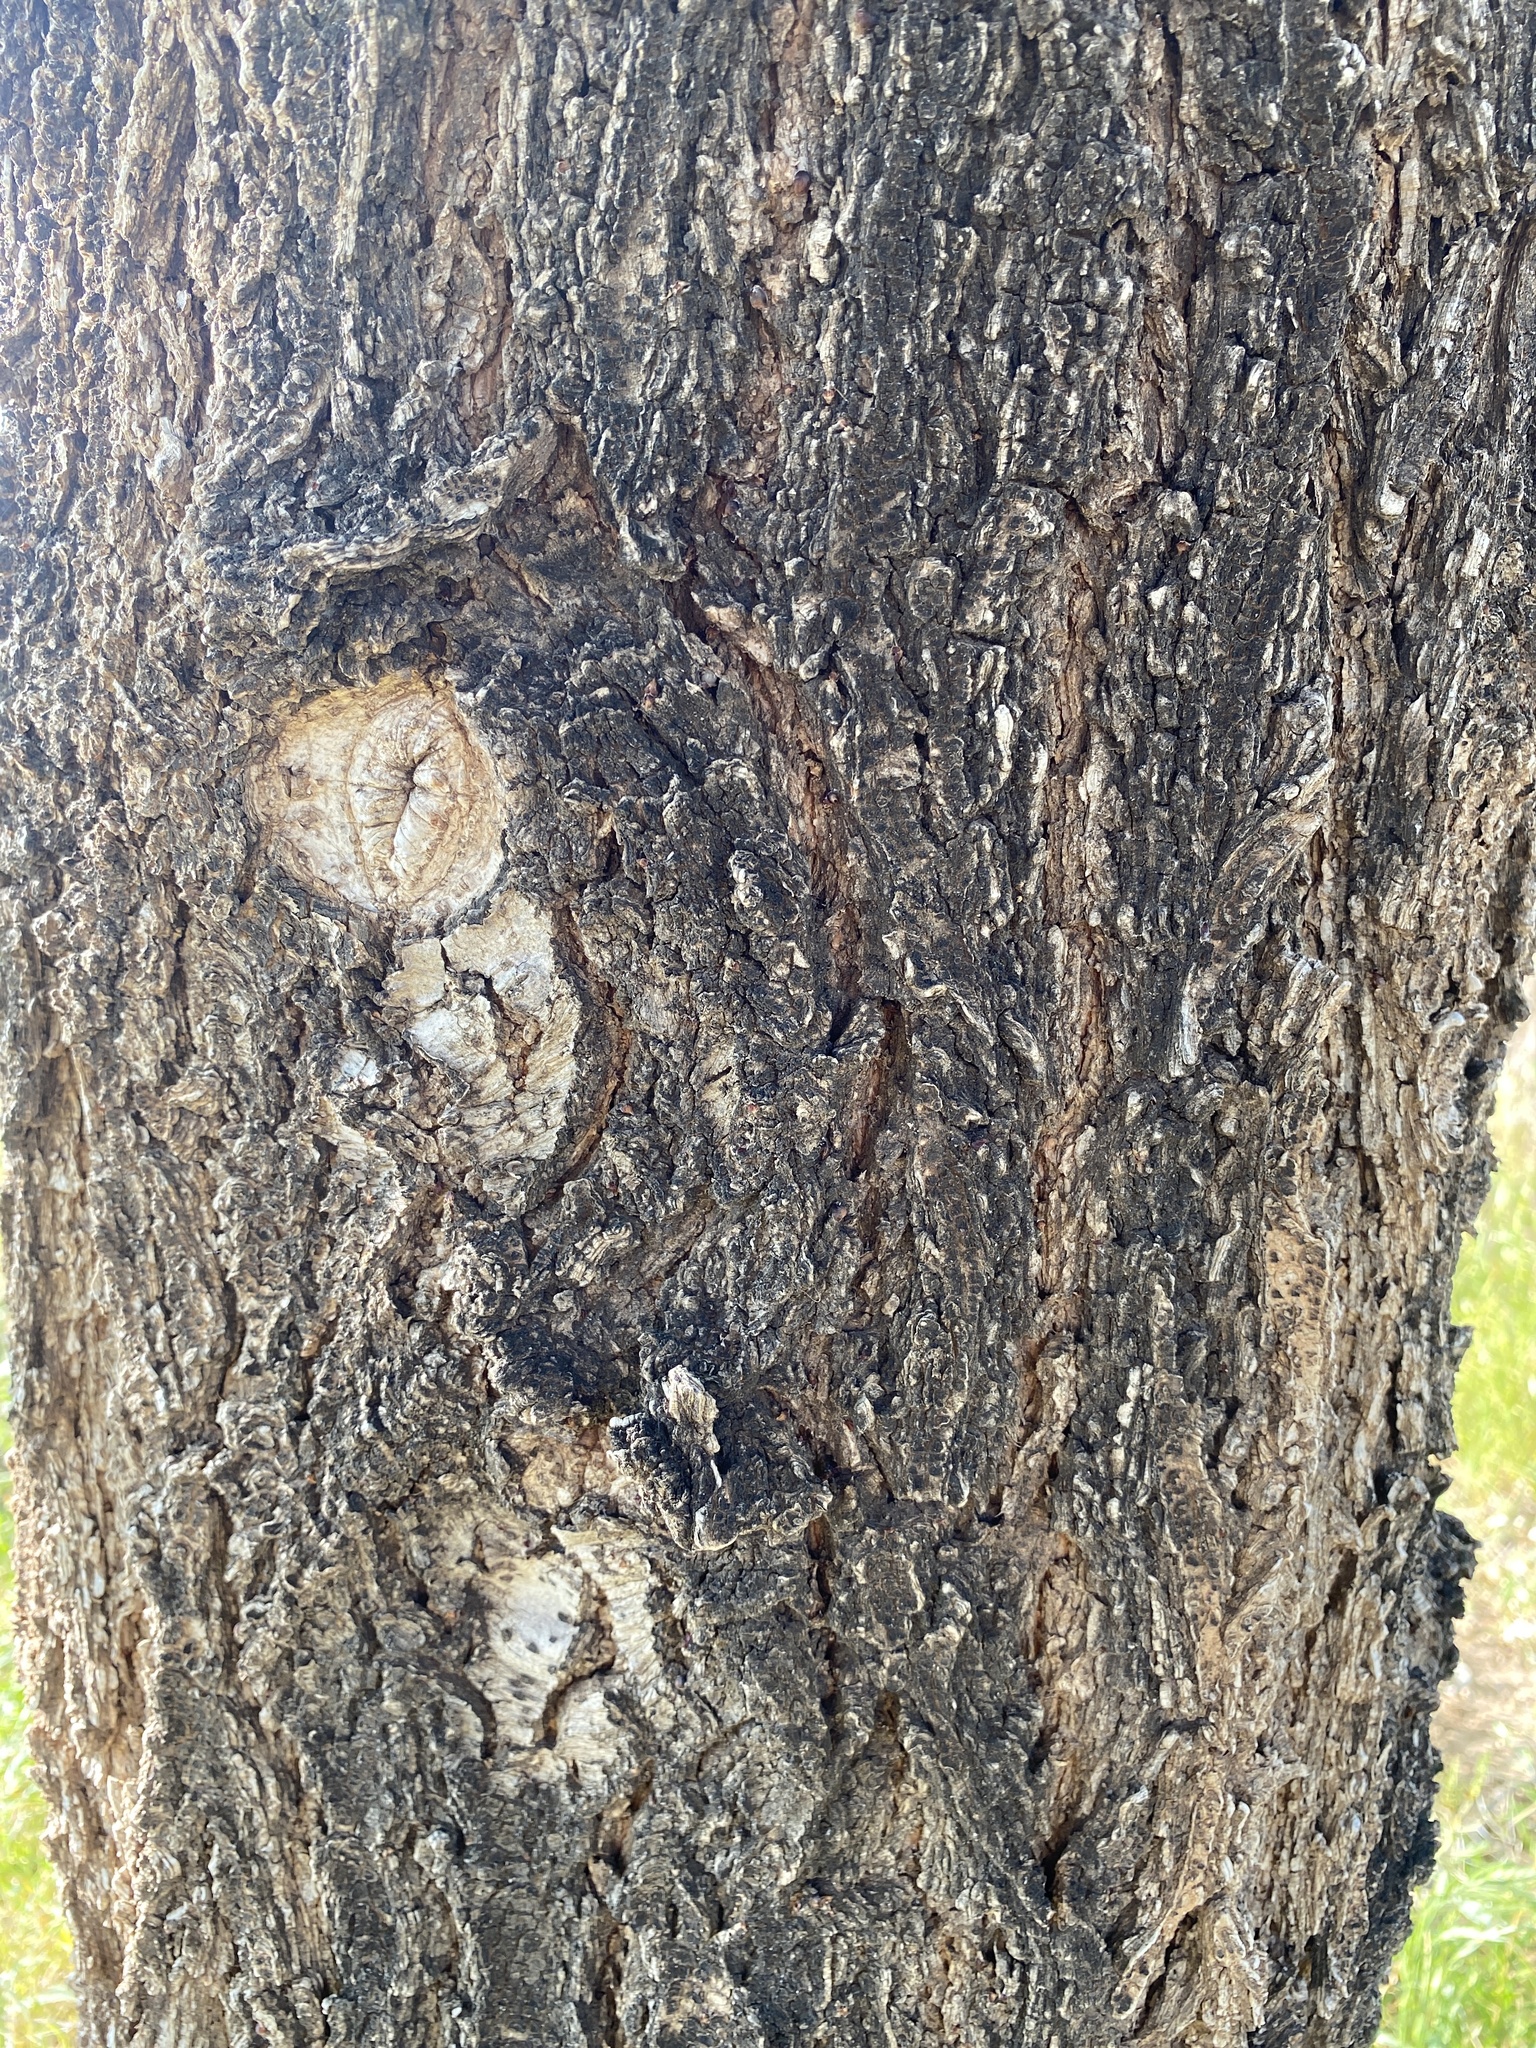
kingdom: Plantae
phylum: Tracheophyta
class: Magnoliopsida
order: Rosales
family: Ulmaceae
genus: Ulmus
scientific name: Ulmus pumila
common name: Siberian elm
